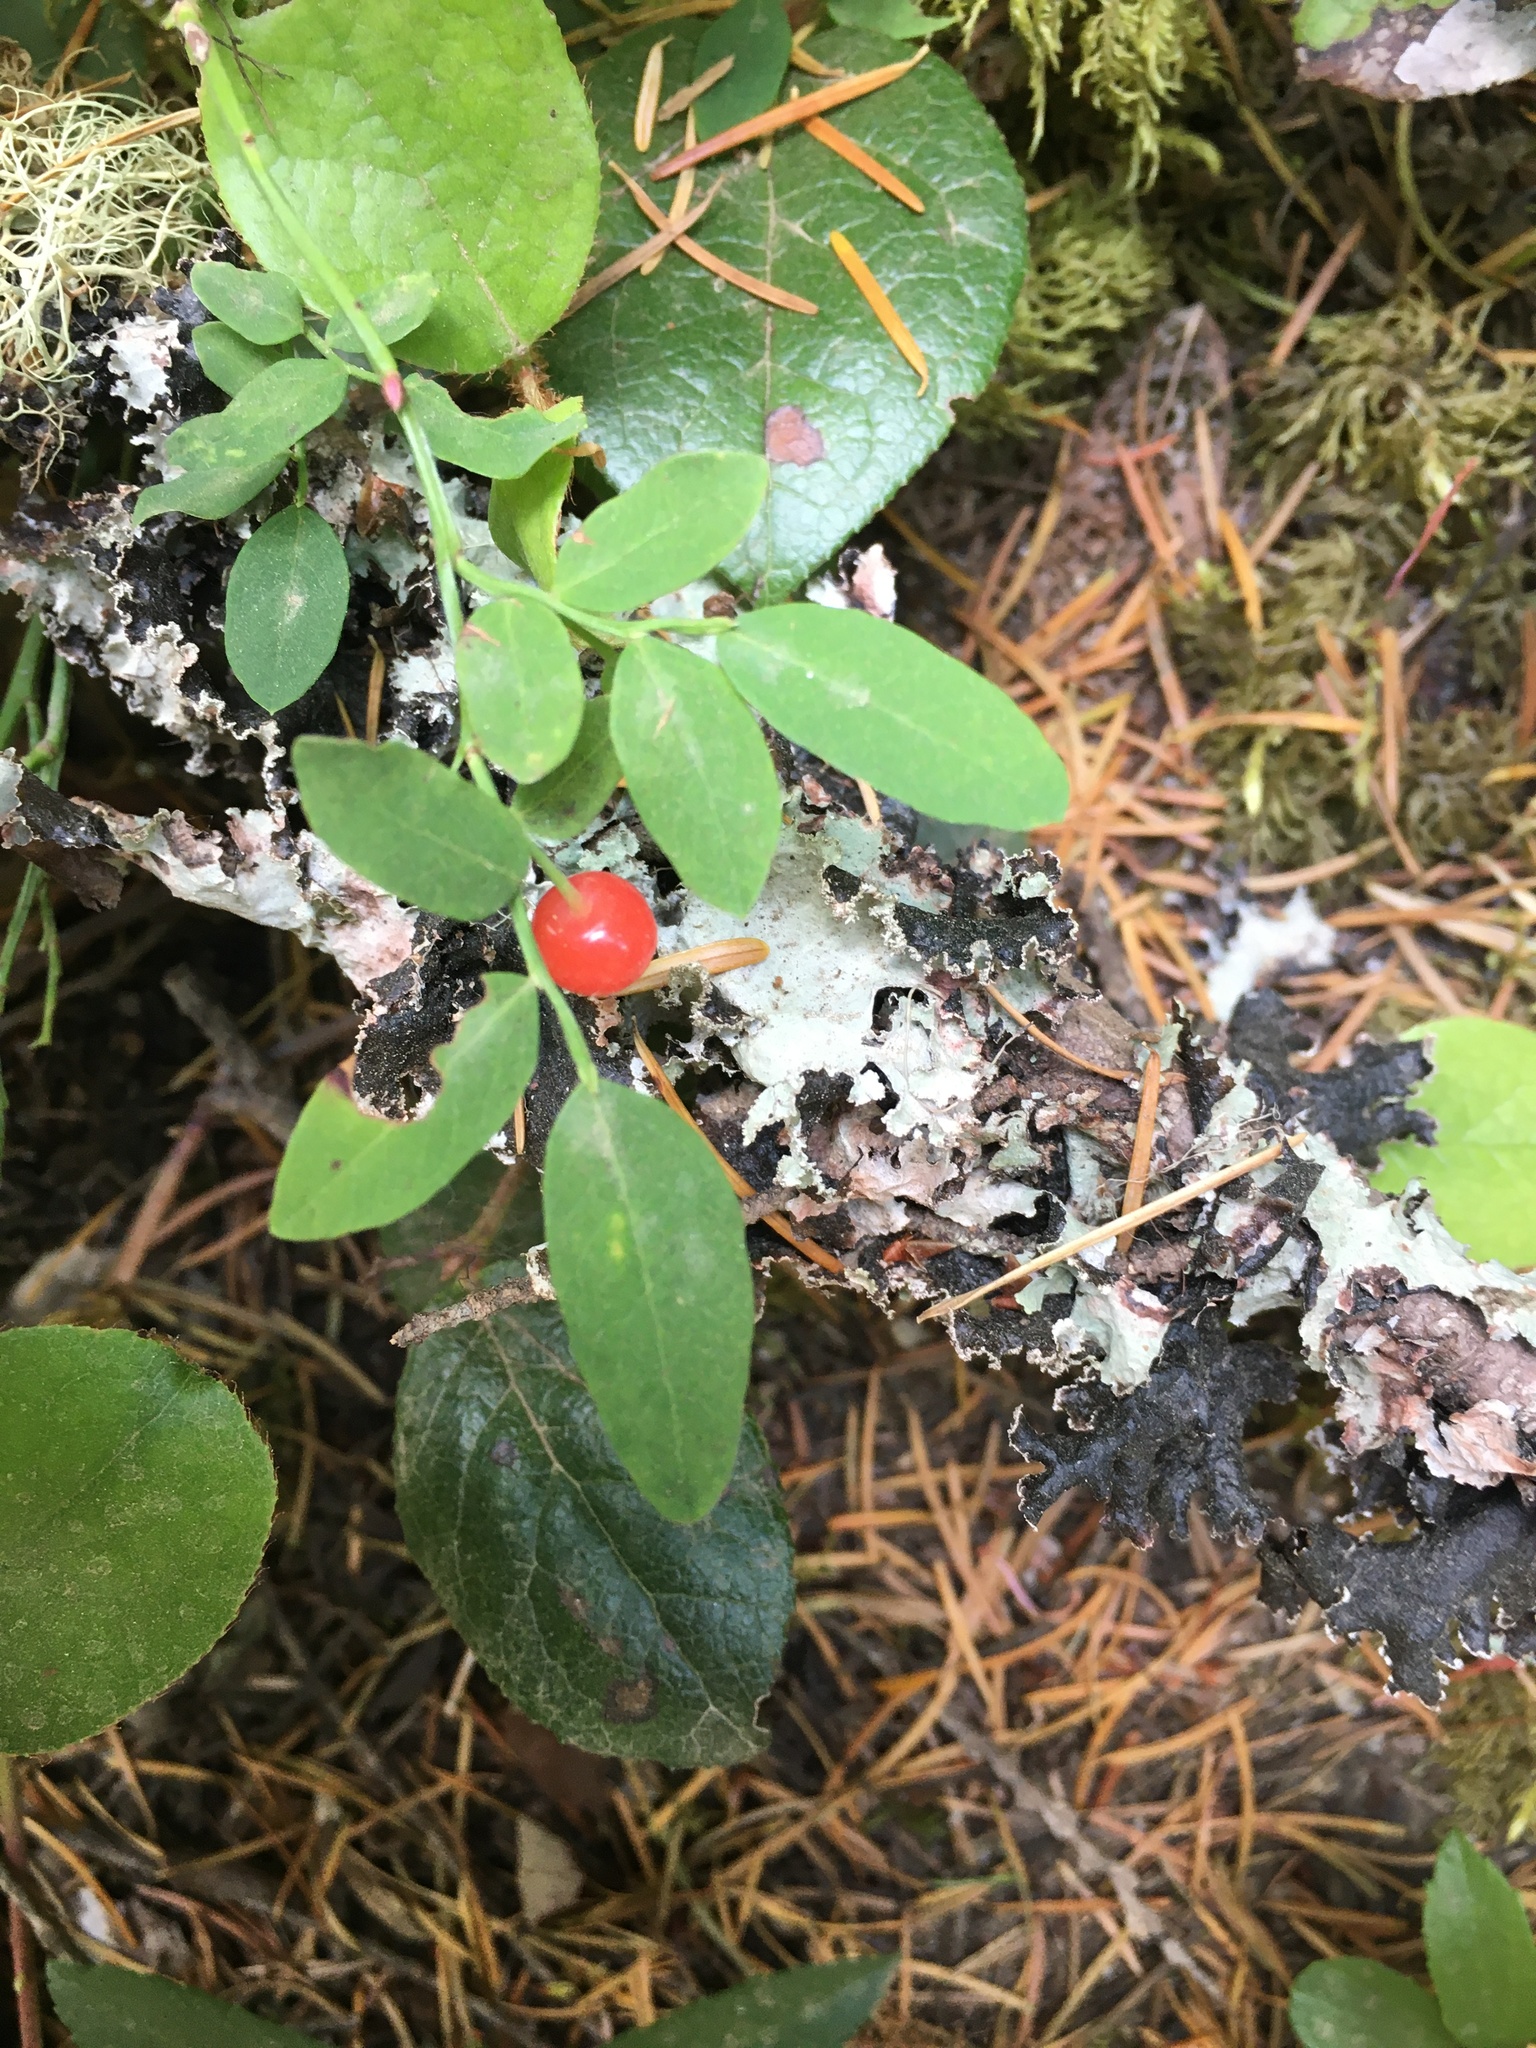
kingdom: Plantae
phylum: Tracheophyta
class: Magnoliopsida
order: Ericales
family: Ericaceae
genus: Vaccinium
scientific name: Vaccinium parvifolium
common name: Red-huckleberry
